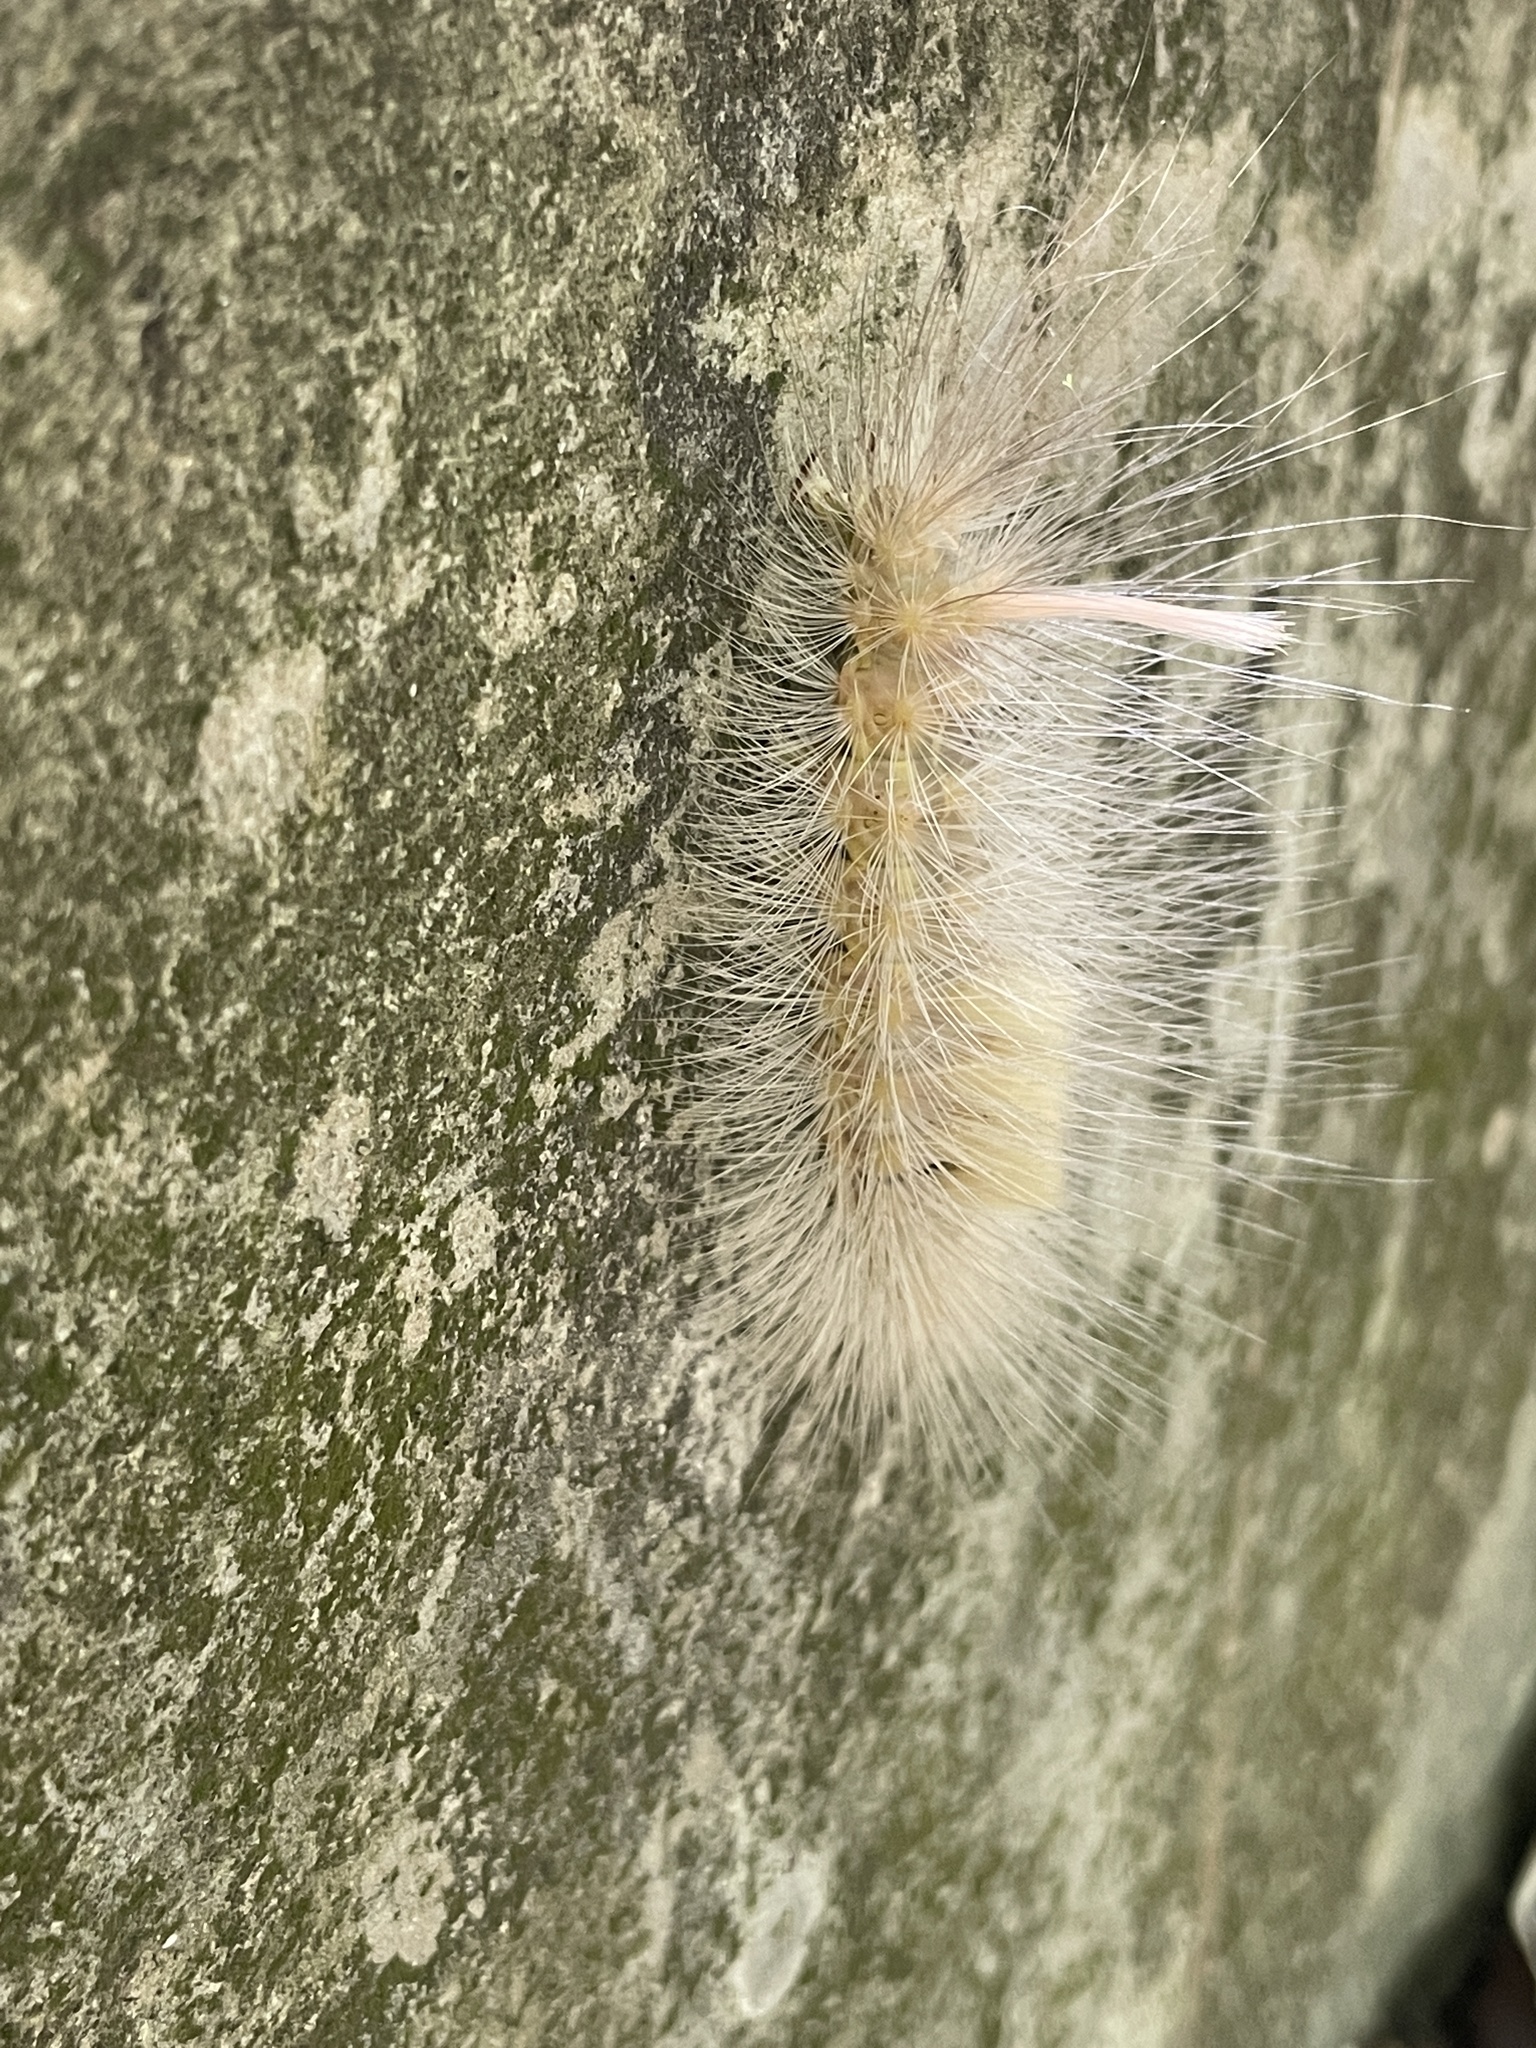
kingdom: Animalia
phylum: Arthropoda
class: Insecta
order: Lepidoptera
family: Erebidae
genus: Calliteara
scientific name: Calliteara grotei
